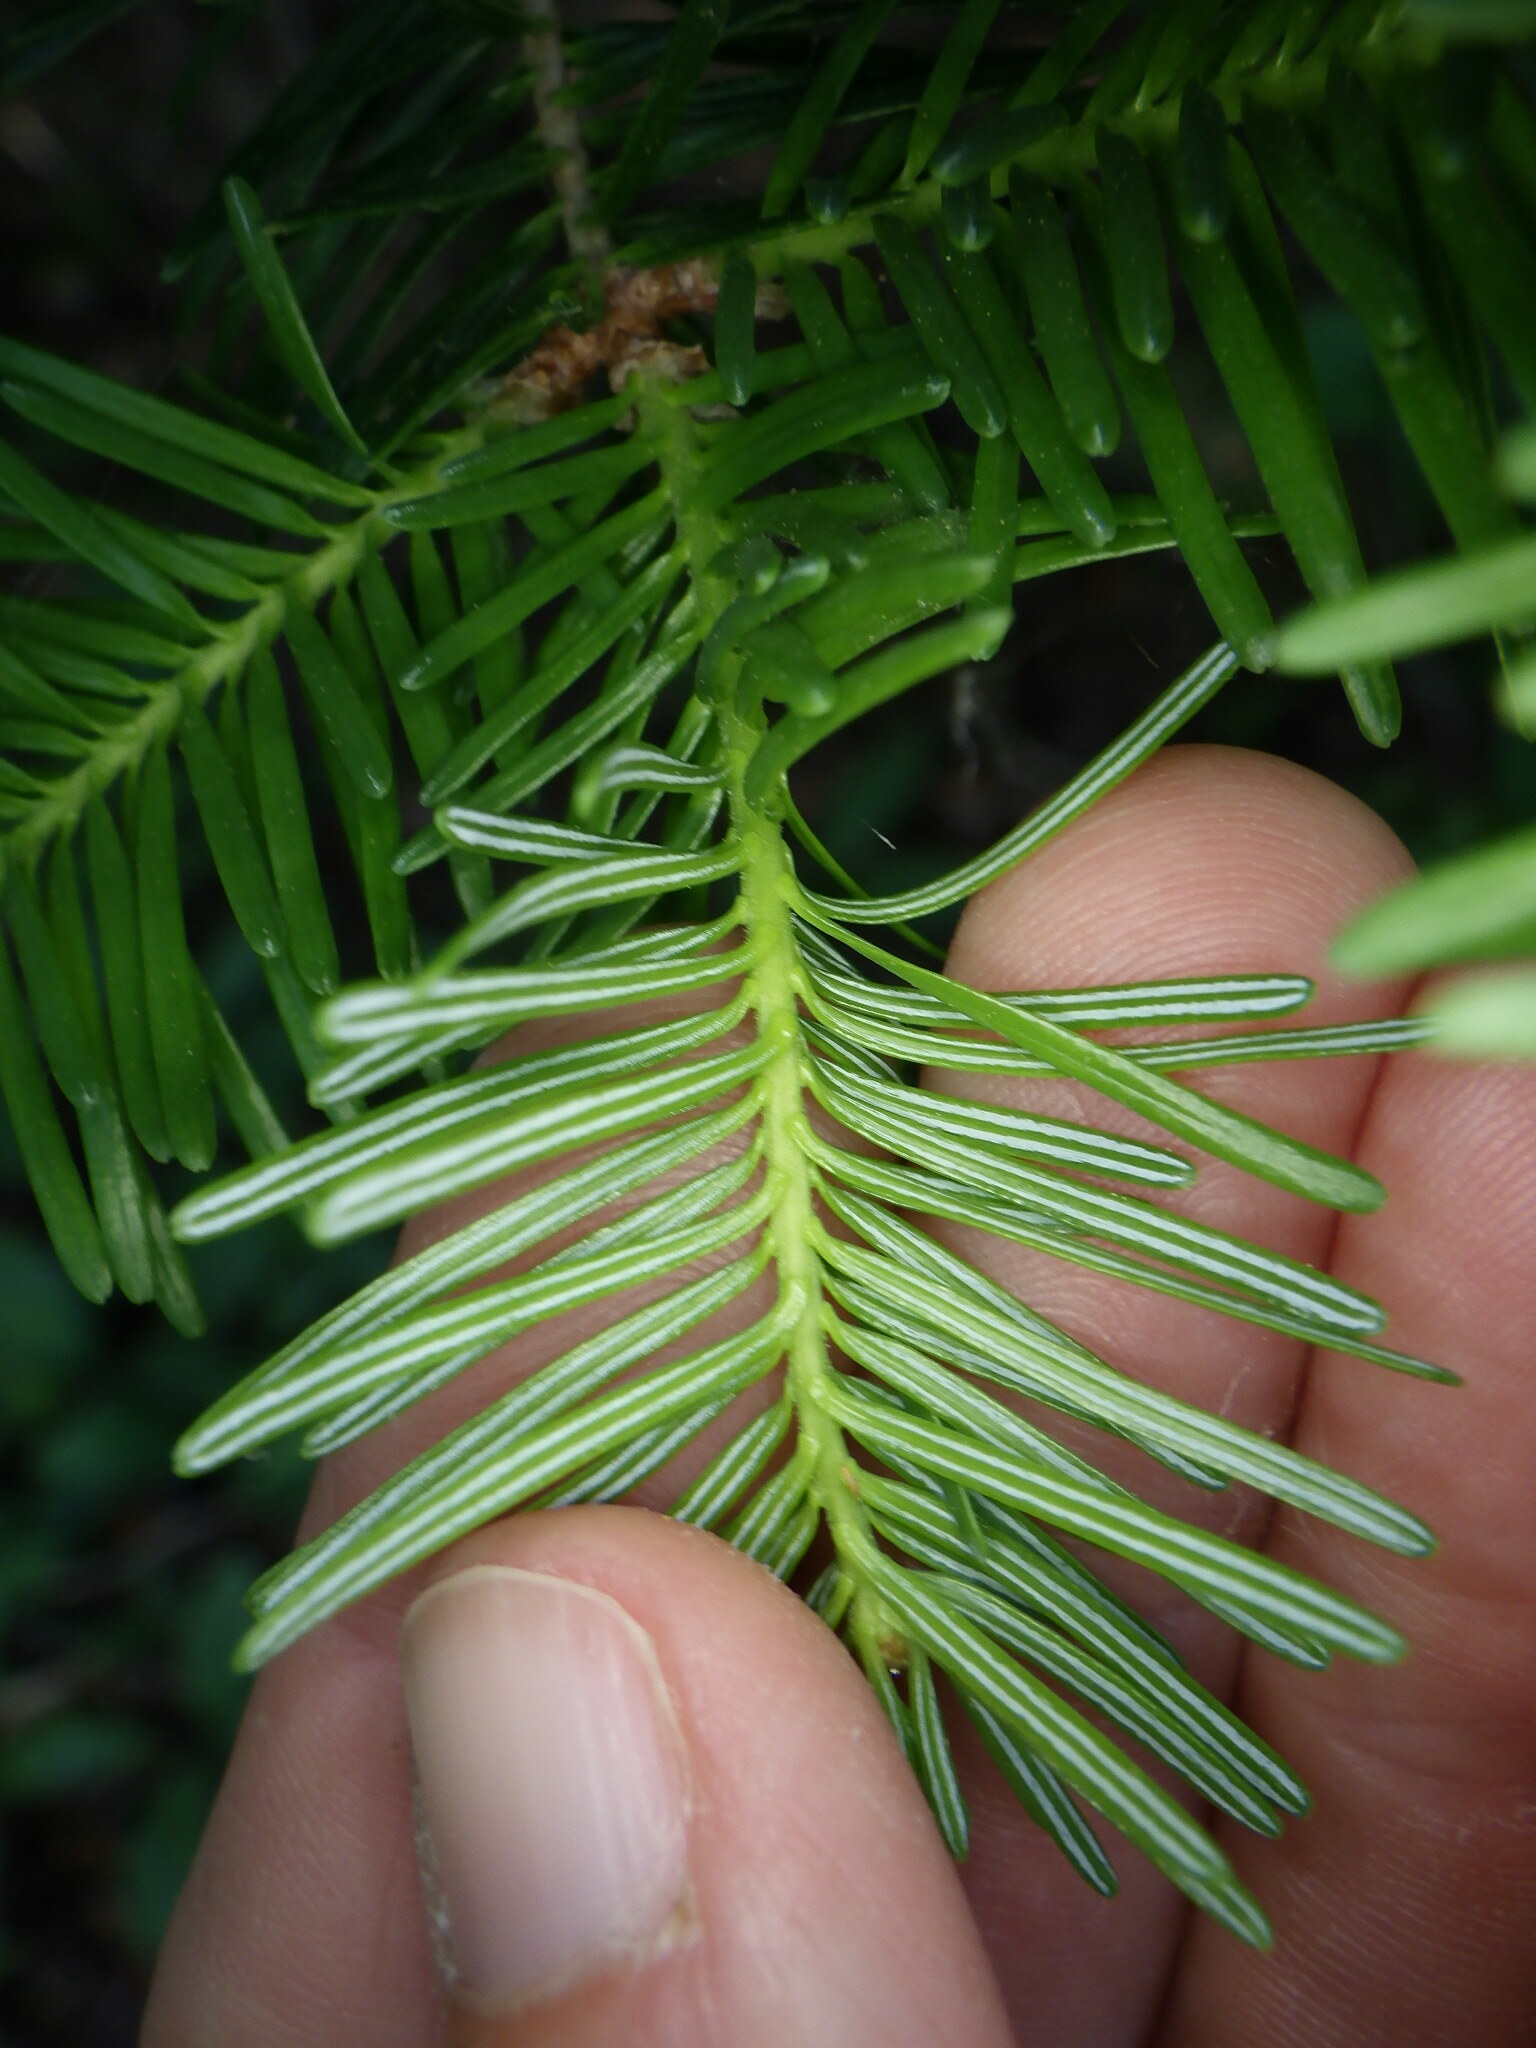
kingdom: Plantae
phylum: Tracheophyta
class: Pinopsida
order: Pinales
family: Pinaceae
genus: Abies
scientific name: Abies balsamea
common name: Balsam fir
